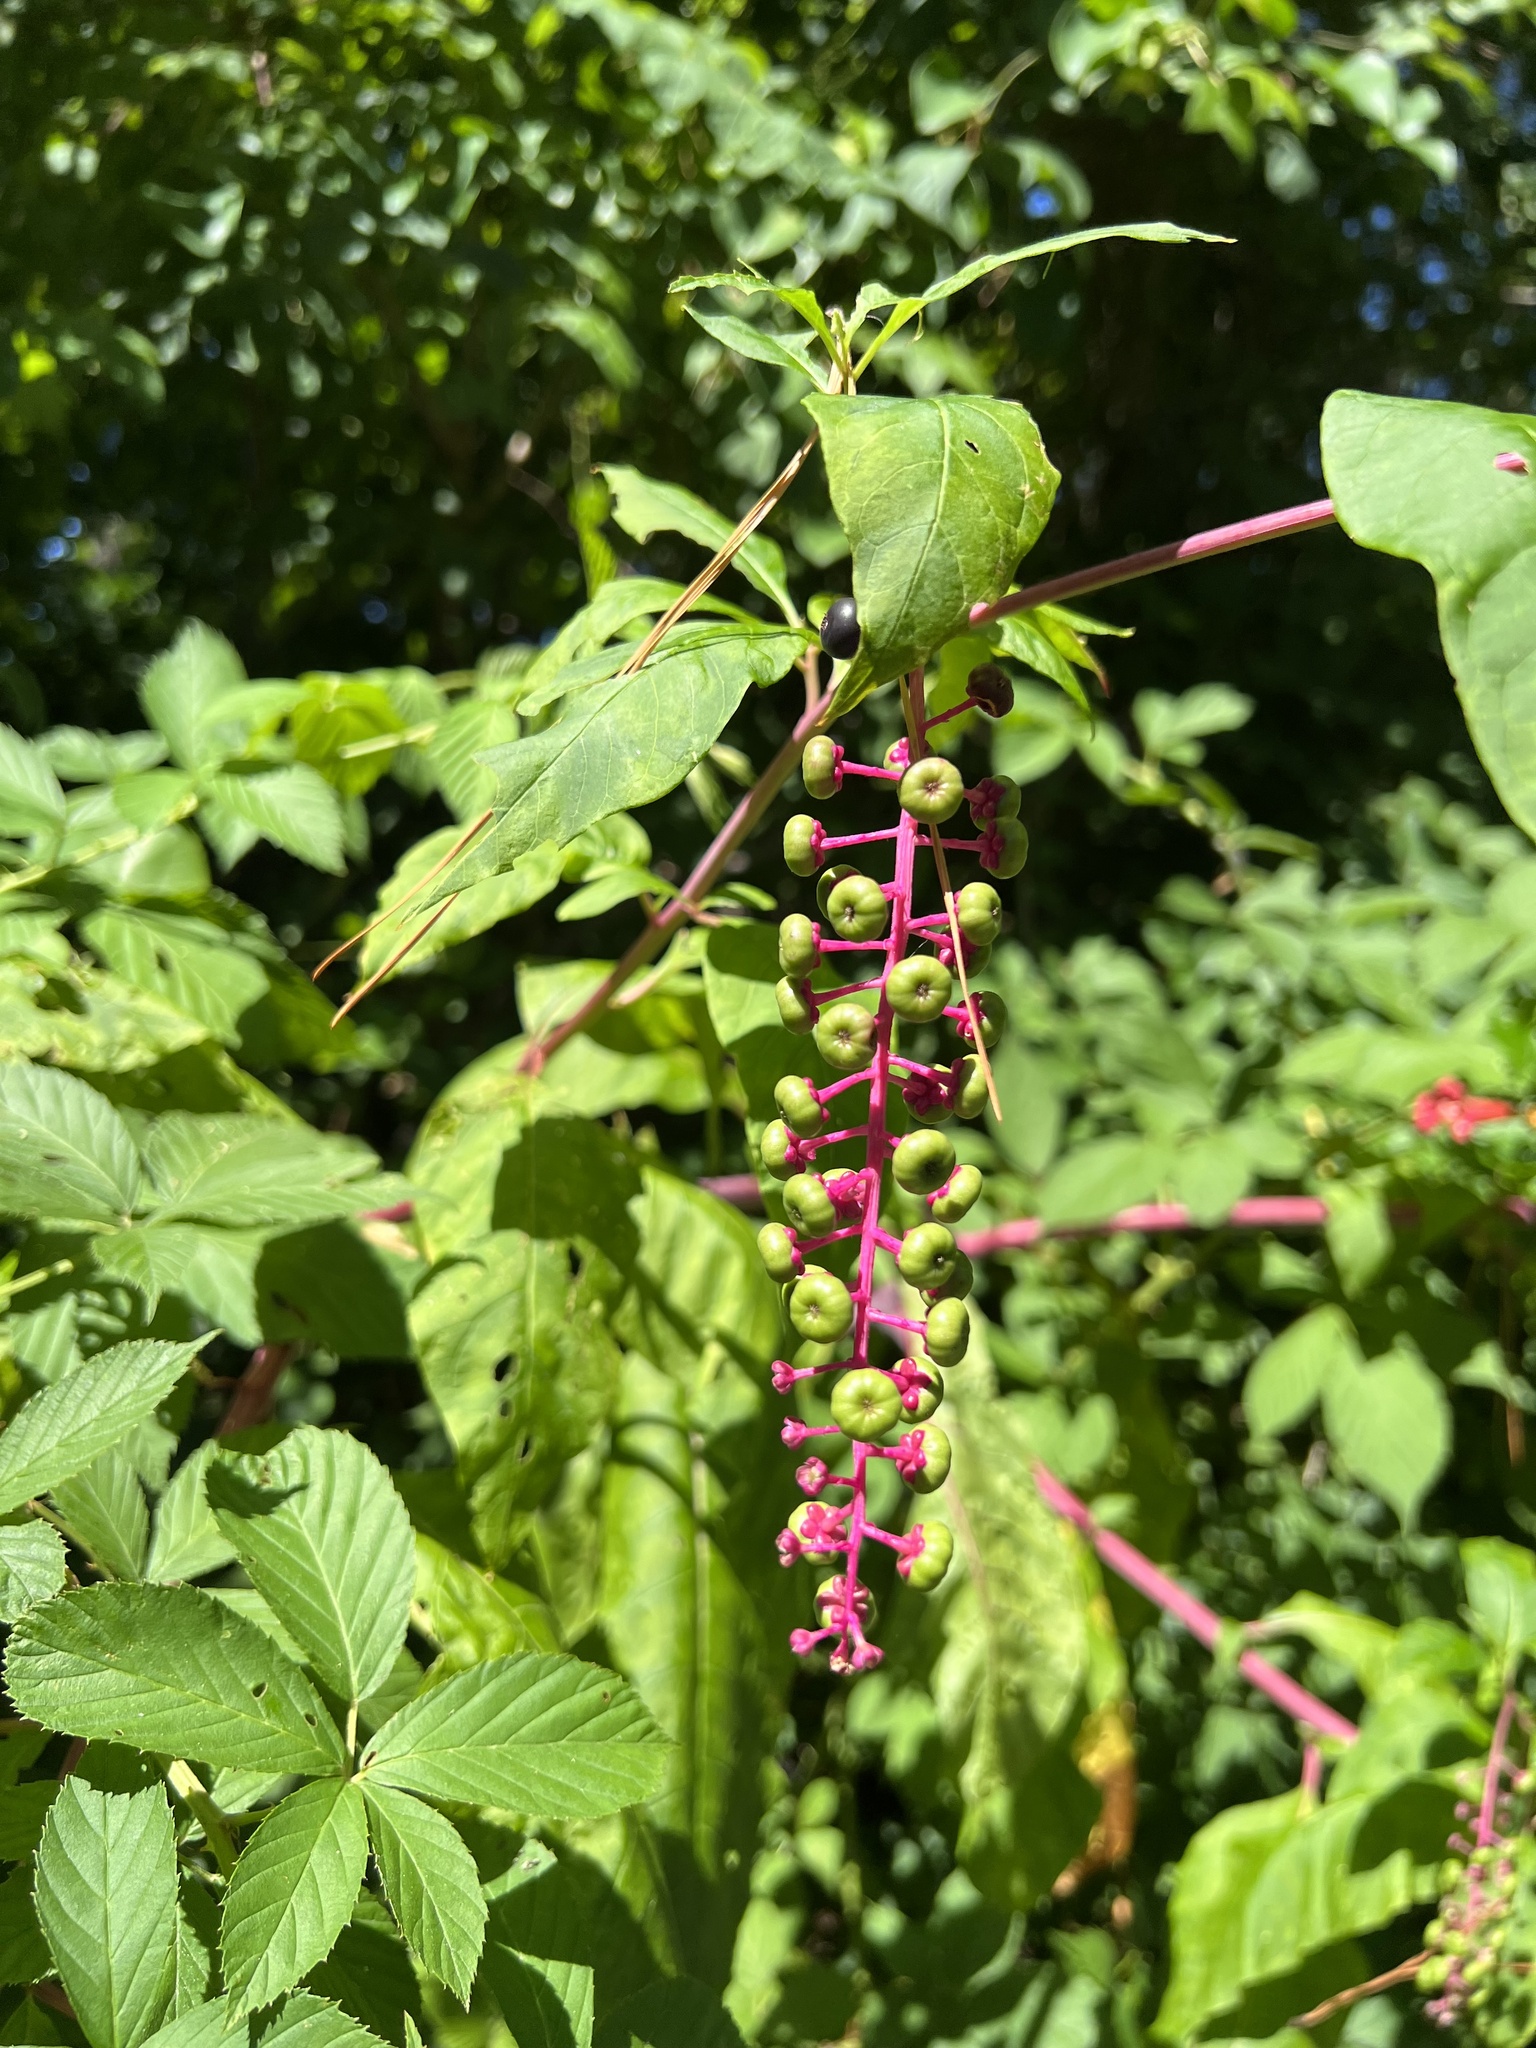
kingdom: Plantae
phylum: Tracheophyta
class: Magnoliopsida
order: Caryophyllales
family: Phytolaccaceae
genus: Phytolacca
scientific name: Phytolacca americana
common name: American pokeweed
